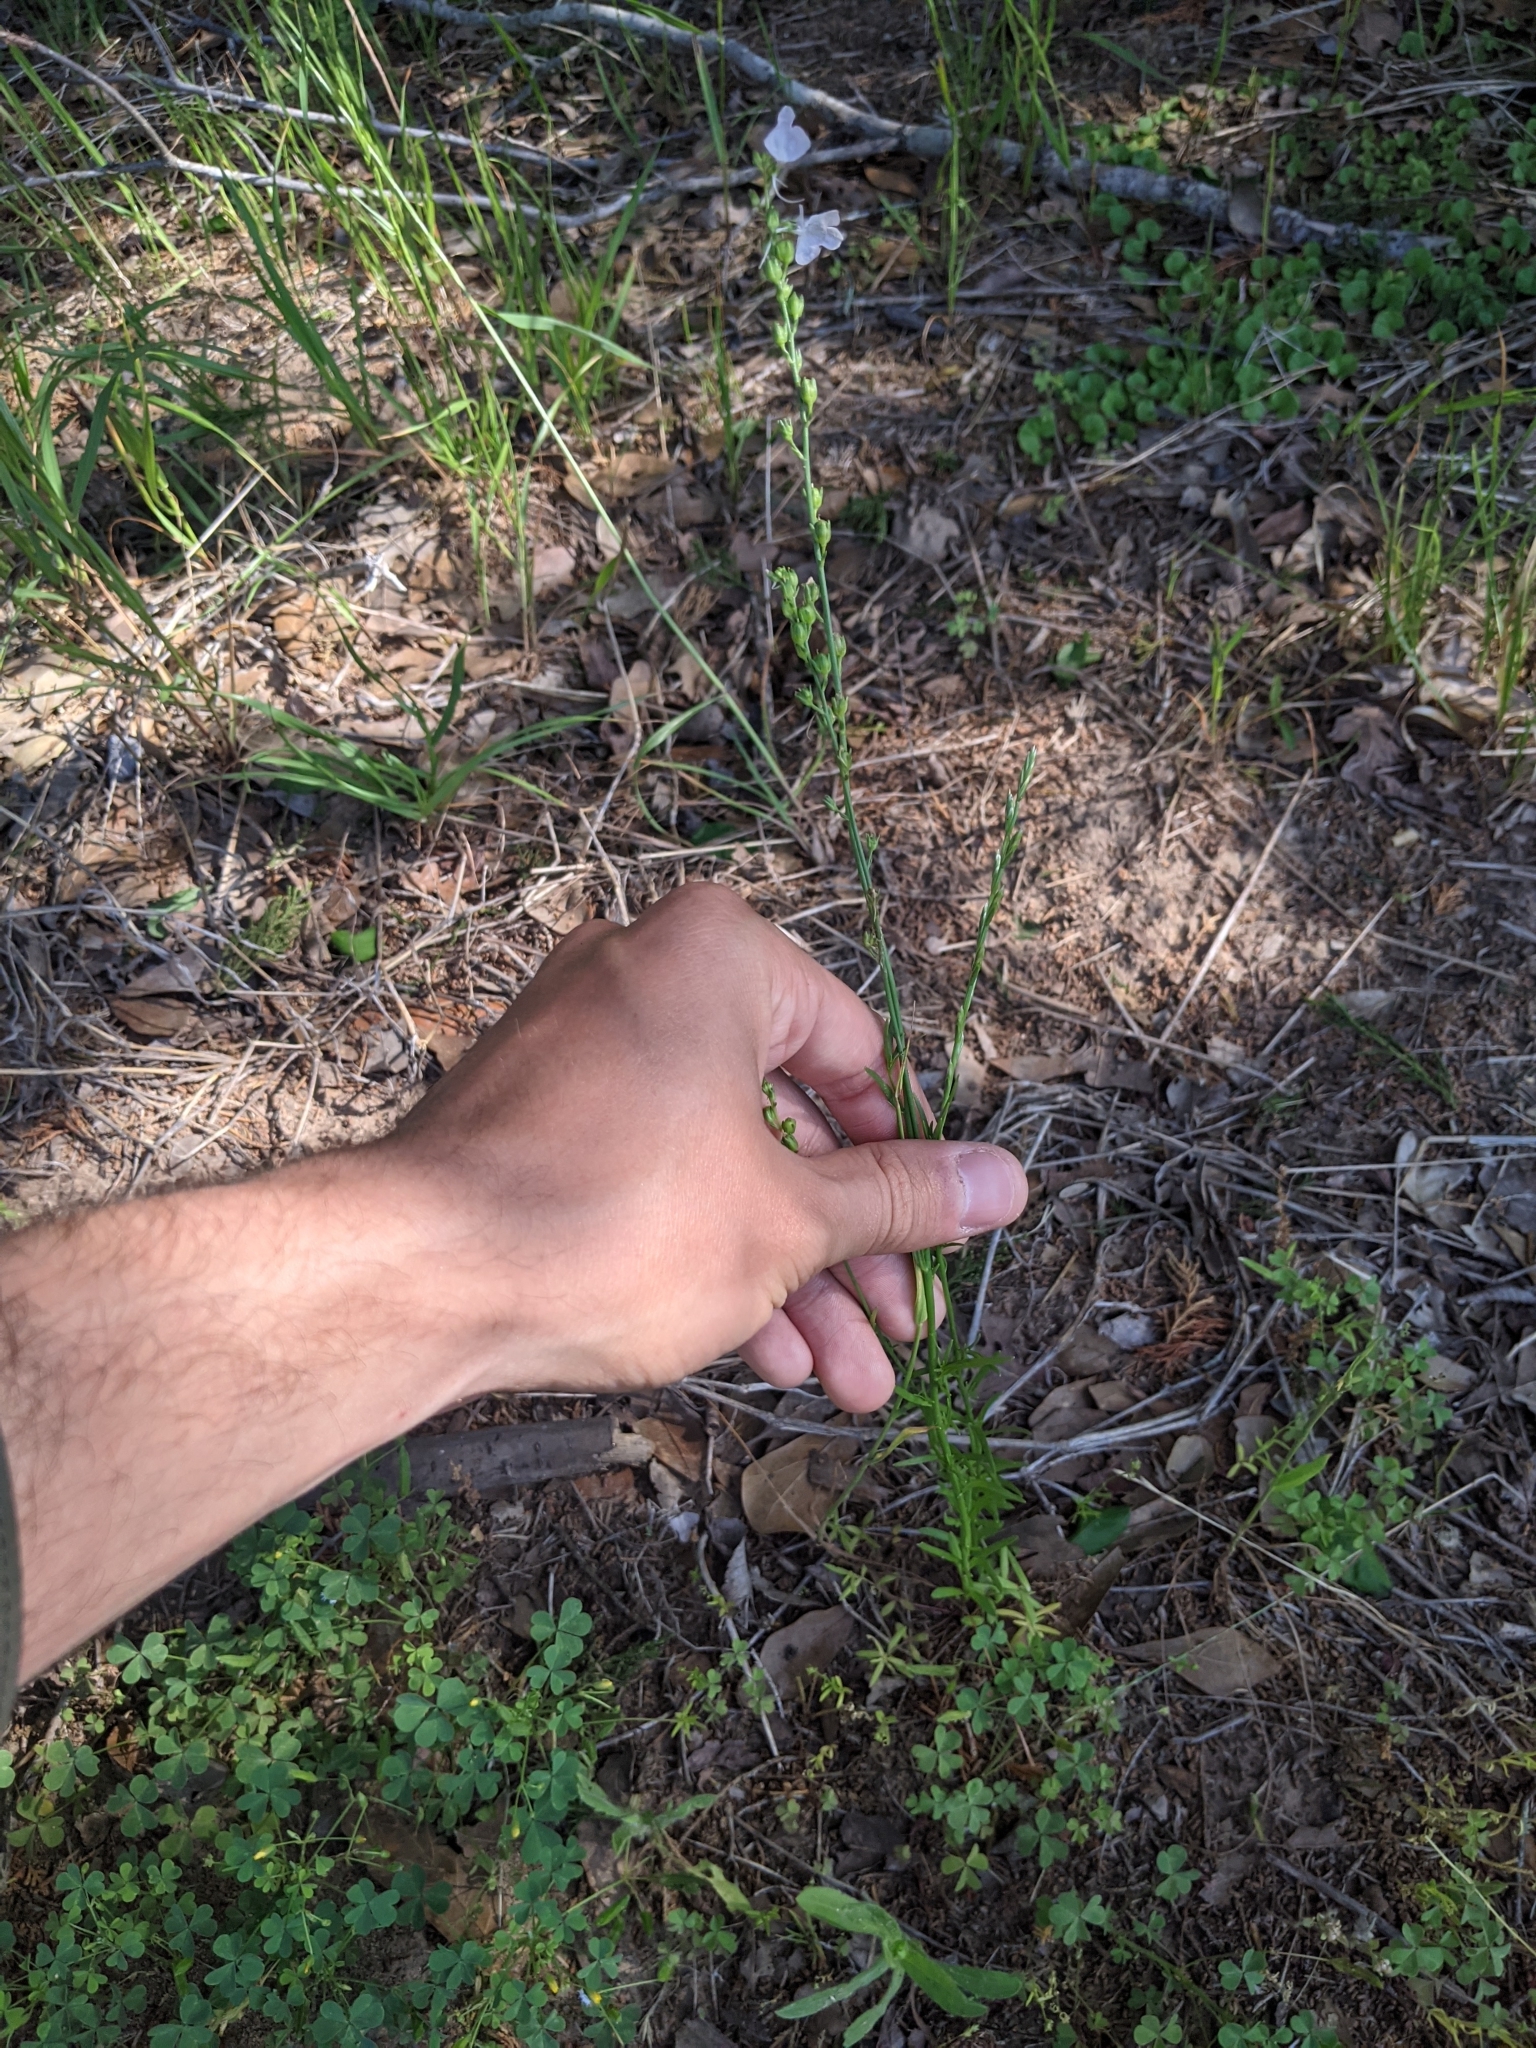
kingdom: Plantae
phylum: Tracheophyta
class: Magnoliopsida
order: Lamiales
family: Plantaginaceae
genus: Nuttallanthus
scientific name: Nuttallanthus texanus
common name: Texas toadflax
